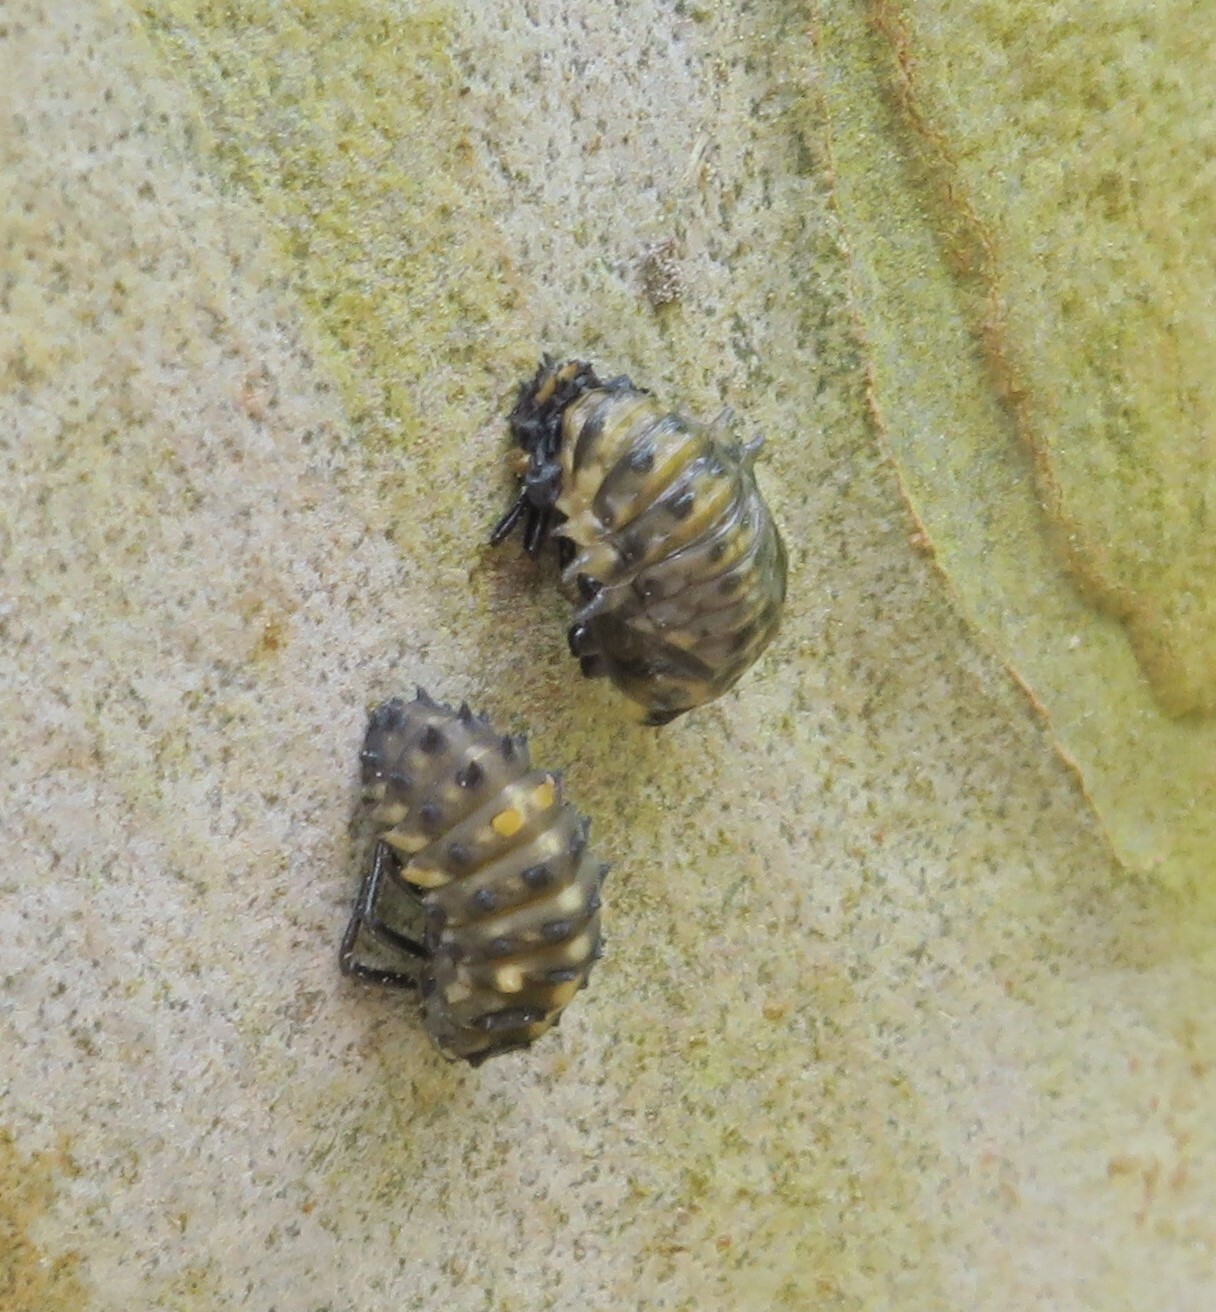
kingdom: Animalia
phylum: Arthropoda
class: Insecta
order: Coleoptera
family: Coccinellidae
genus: Cleobora
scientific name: Cleobora
